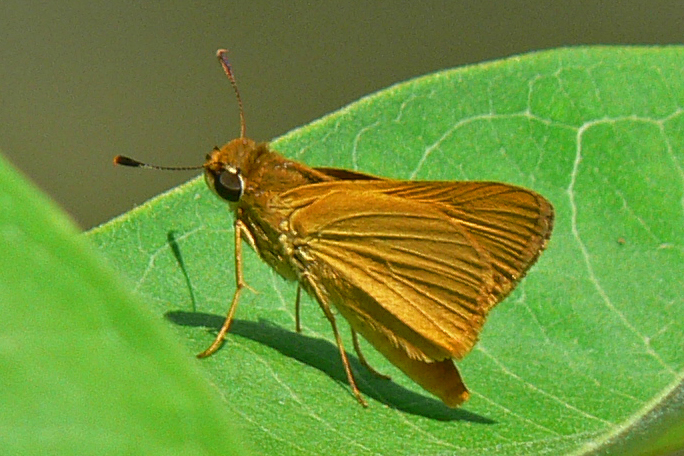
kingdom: Animalia
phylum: Arthropoda
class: Insecta
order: Lepidoptera
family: Hesperiidae
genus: Atrytone
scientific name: Atrytone delaware
